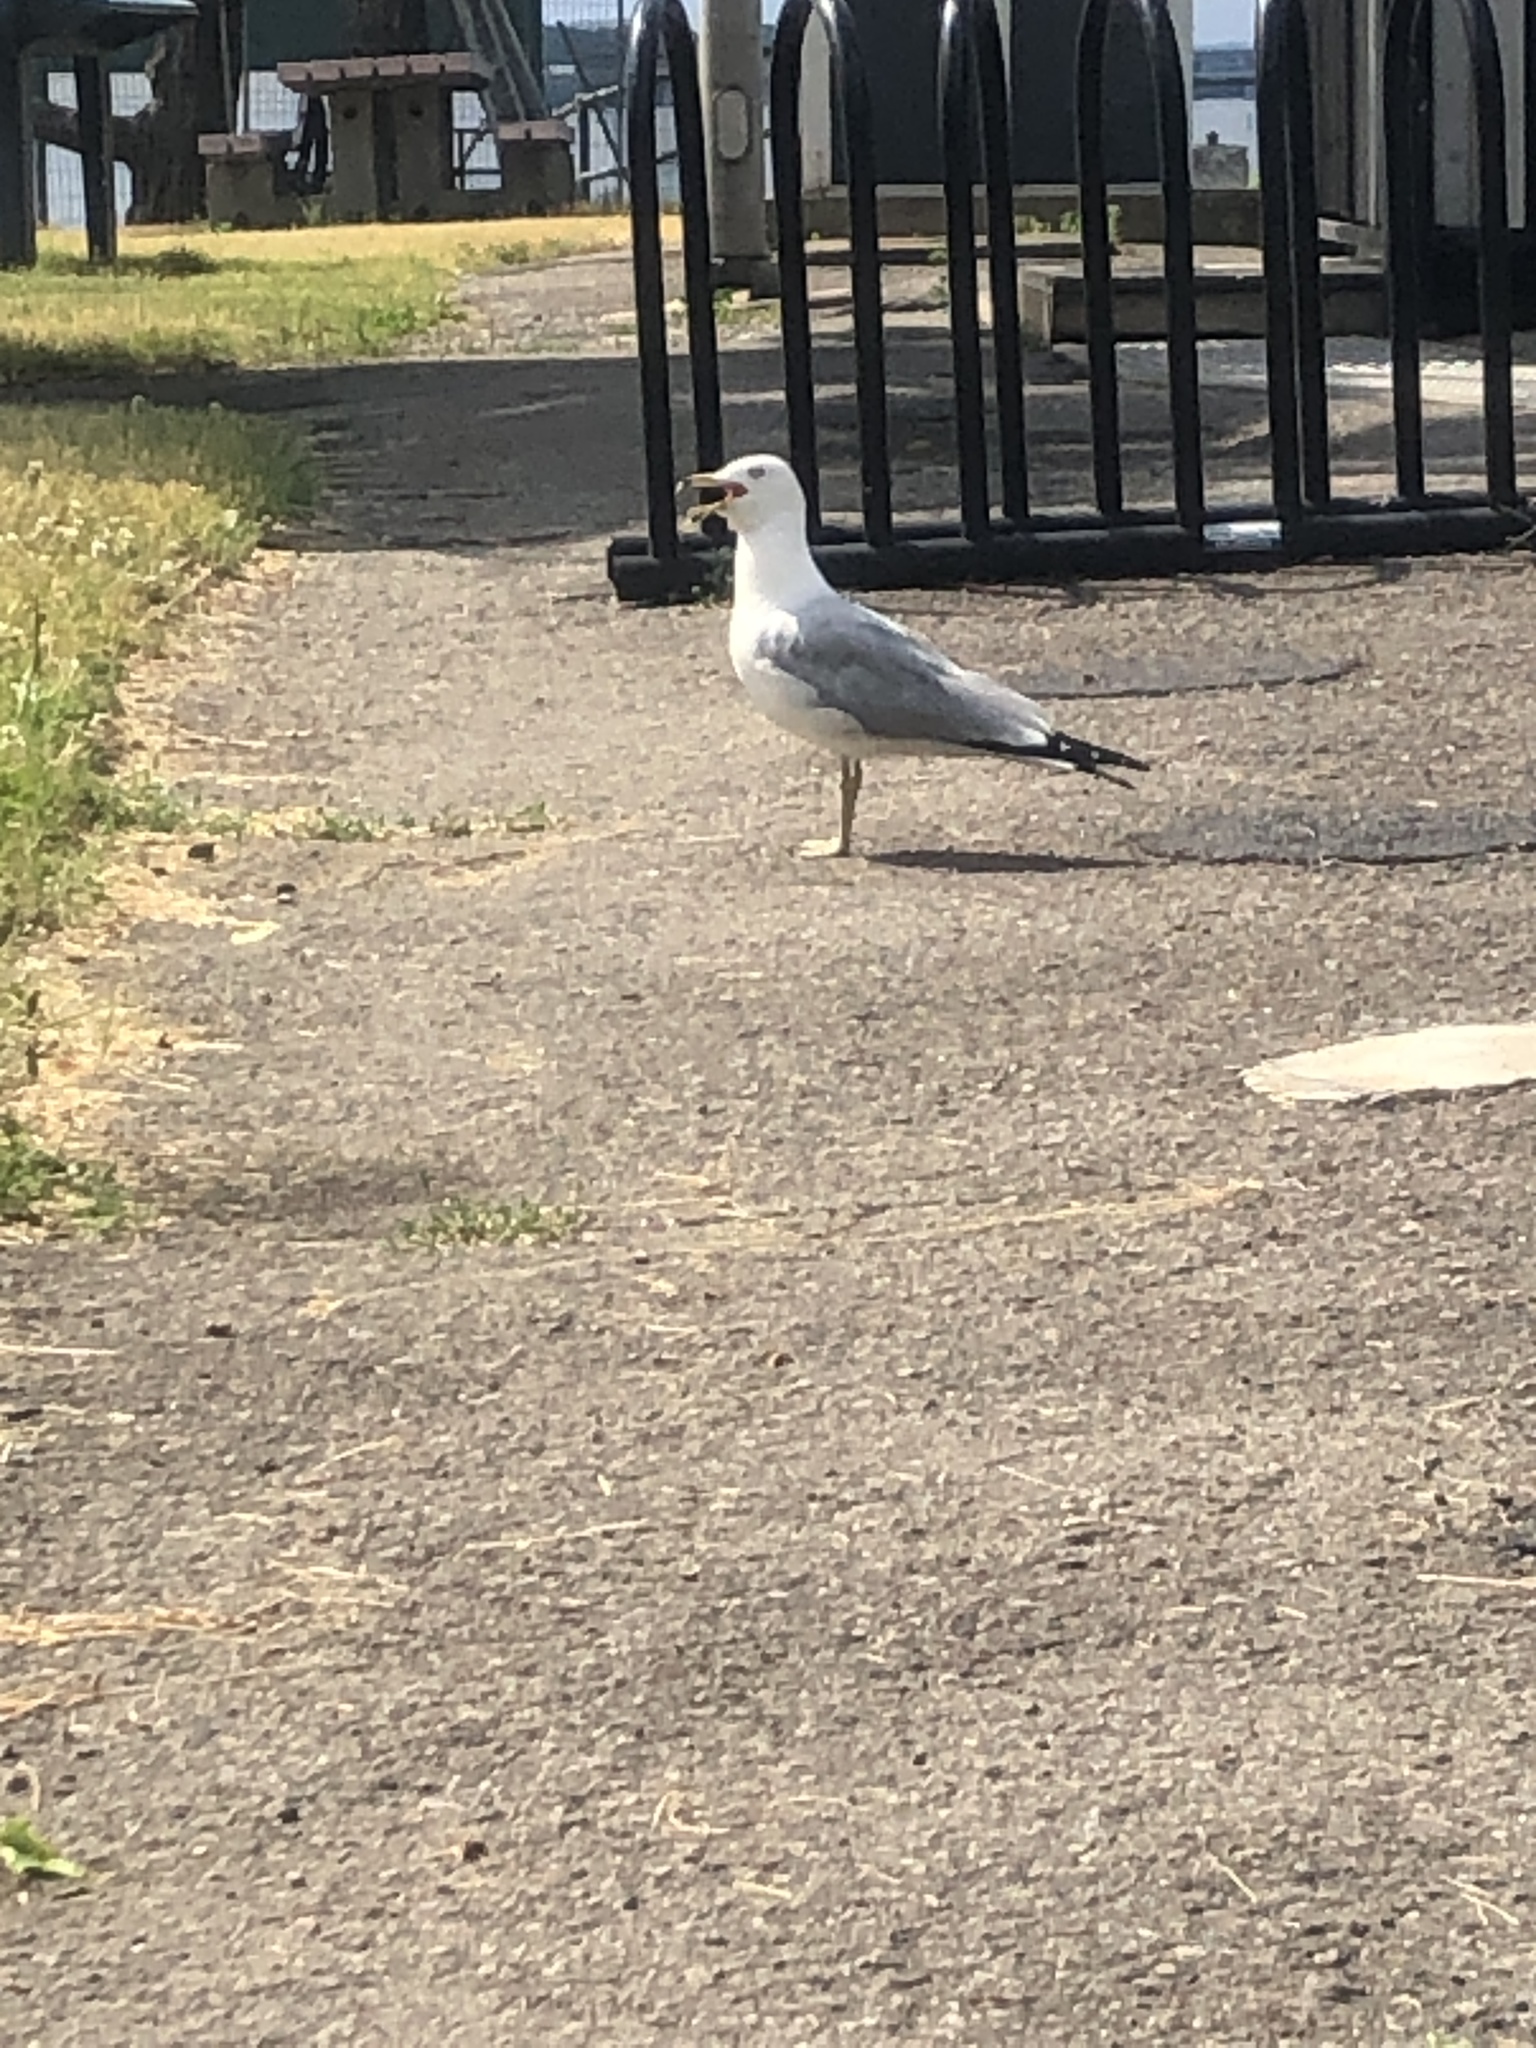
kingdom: Animalia
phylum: Chordata
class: Aves
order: Charadriiformes
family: Laridae
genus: Larus
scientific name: Larus delawarensis
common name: Ring-billed gull
